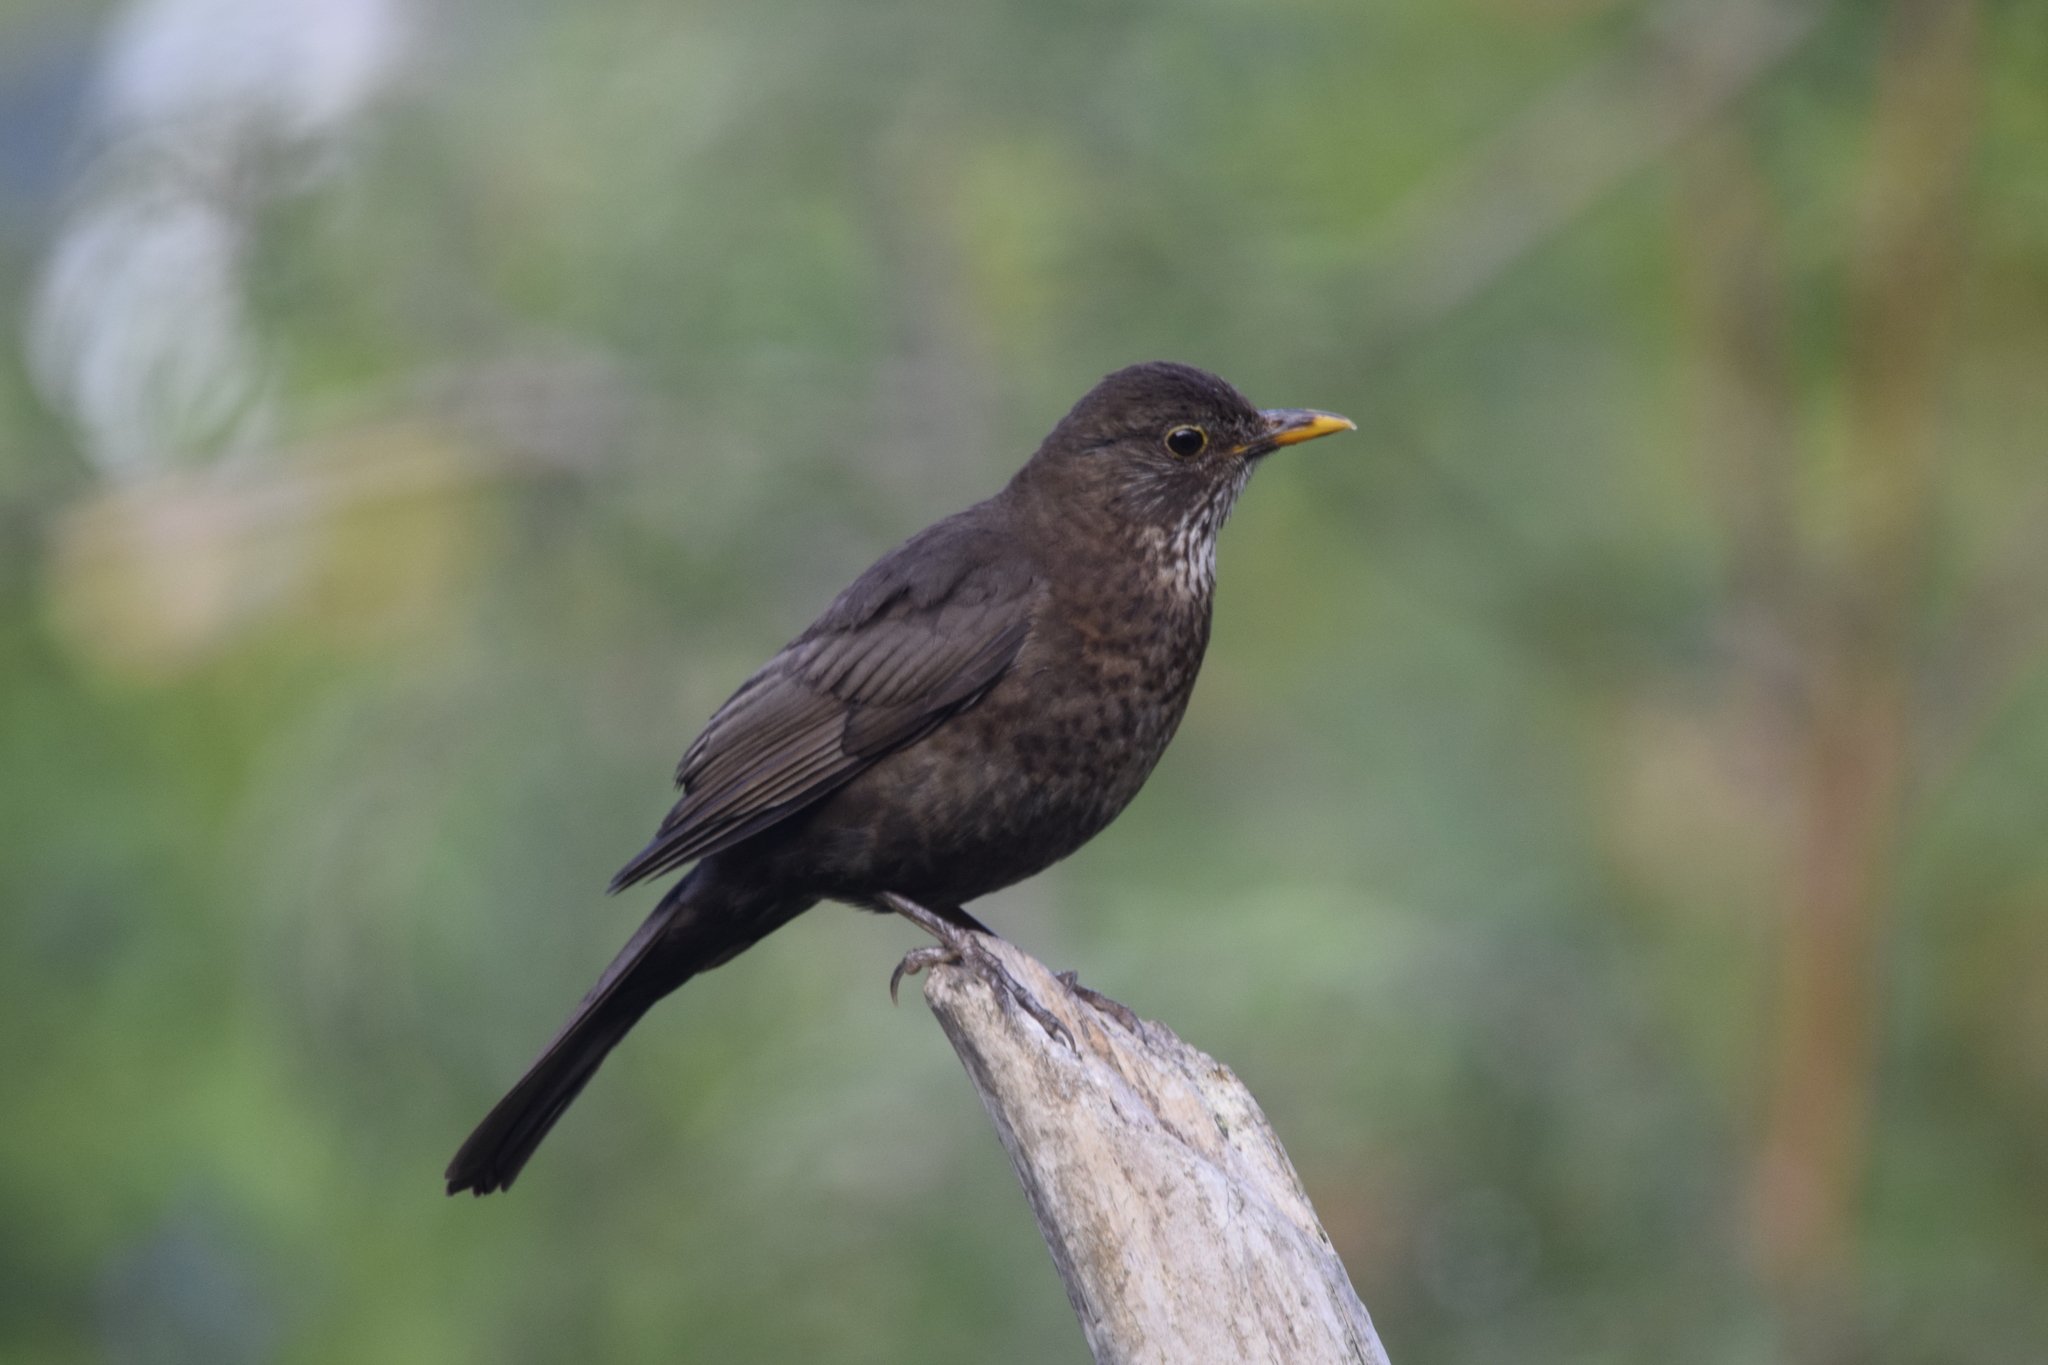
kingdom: Animalia
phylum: Chordata
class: Aves
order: Passeriformes
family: Turdidae
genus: Turdus
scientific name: Turdus merula
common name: Common blackbird
